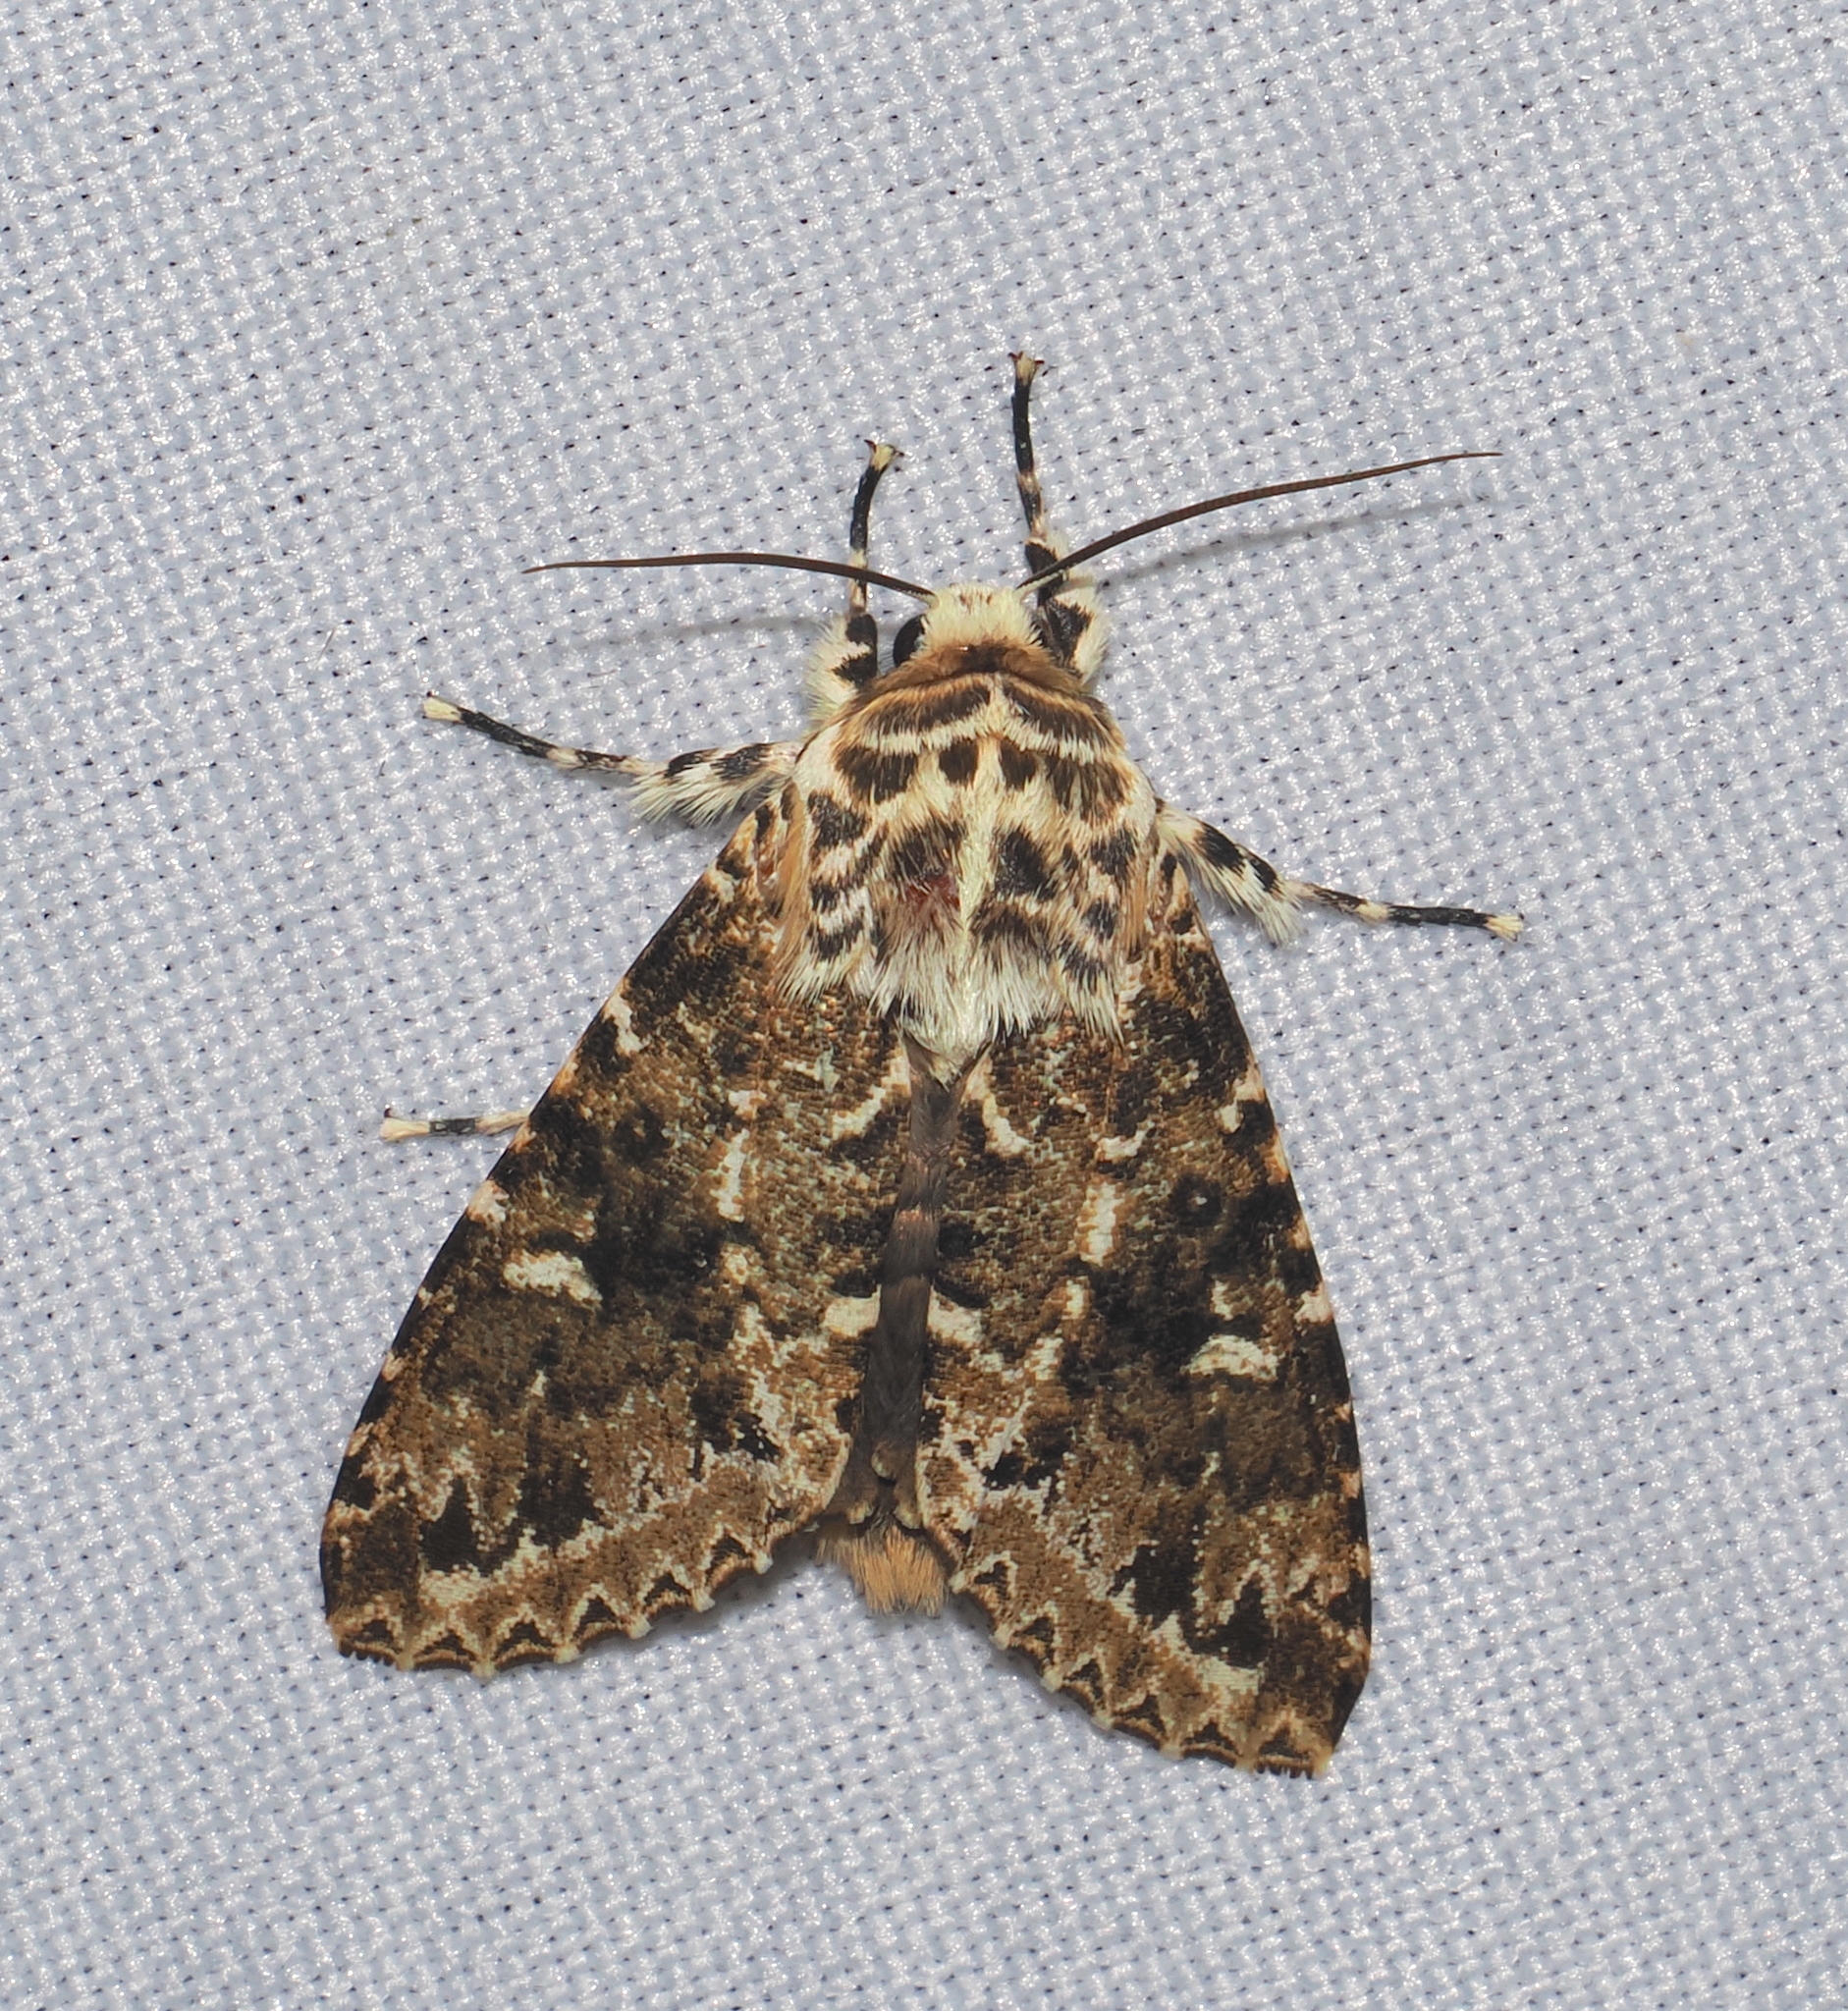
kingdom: Animalia
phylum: Arthropoda
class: Insecta
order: Lepidoptera
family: Noctuidae
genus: Lichnoptera
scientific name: Lichnoptera gulo
